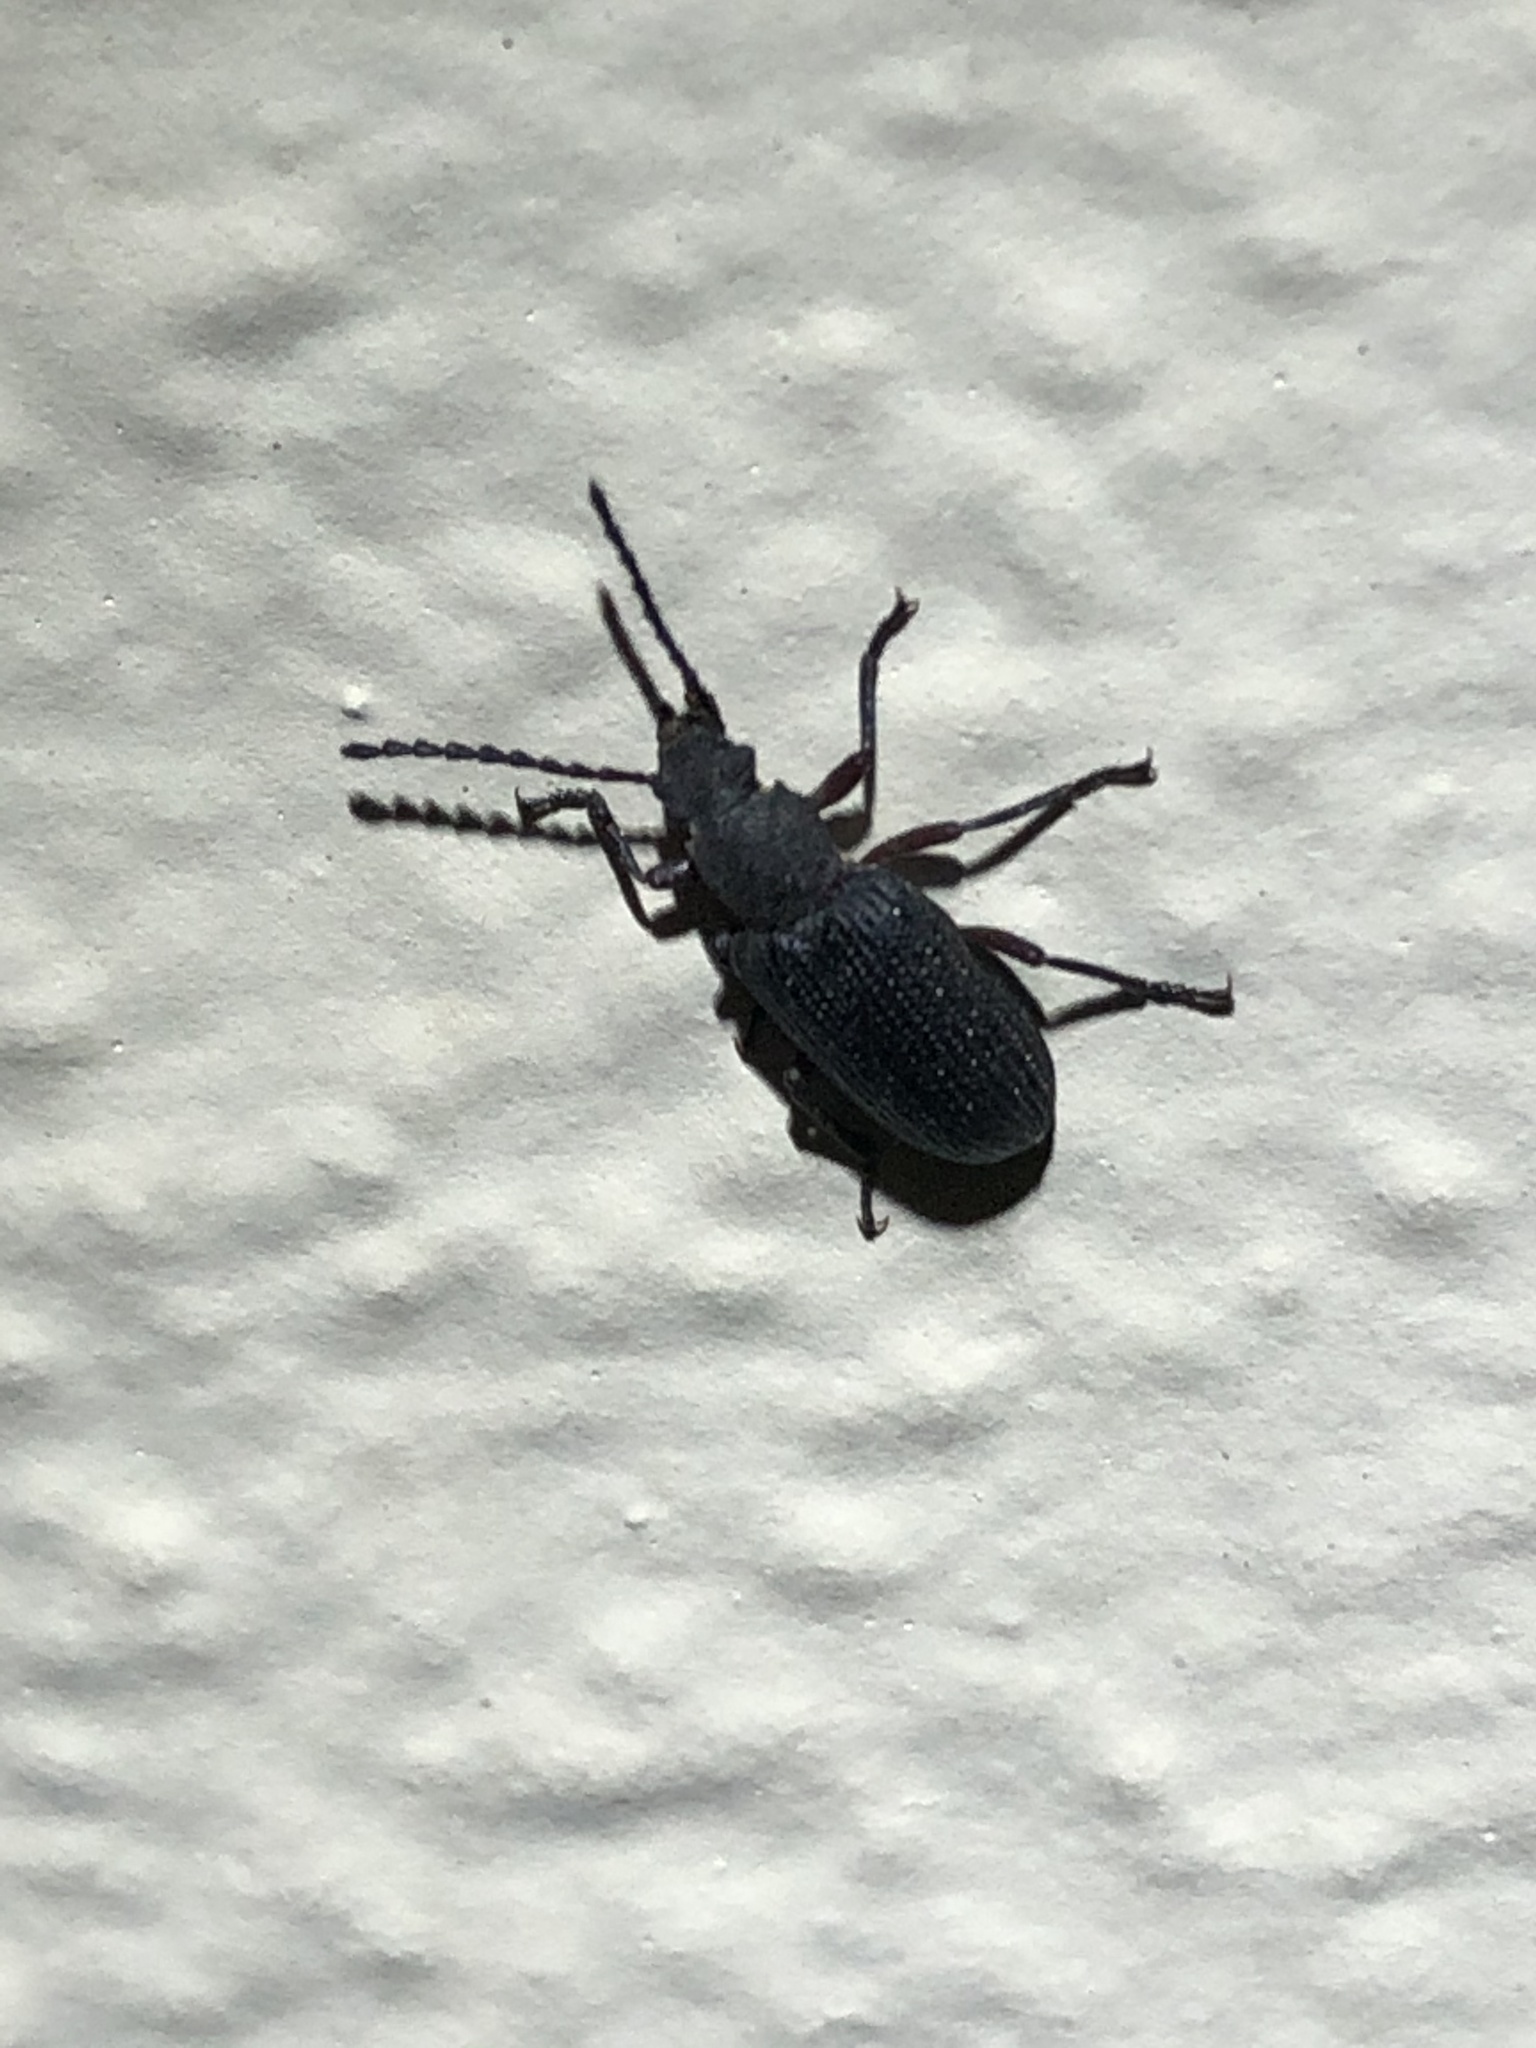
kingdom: Animalia
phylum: Arthropoda
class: Insecta
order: Coleoptera
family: Tenebrionidae
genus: Helops
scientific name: Helops arizonensis
